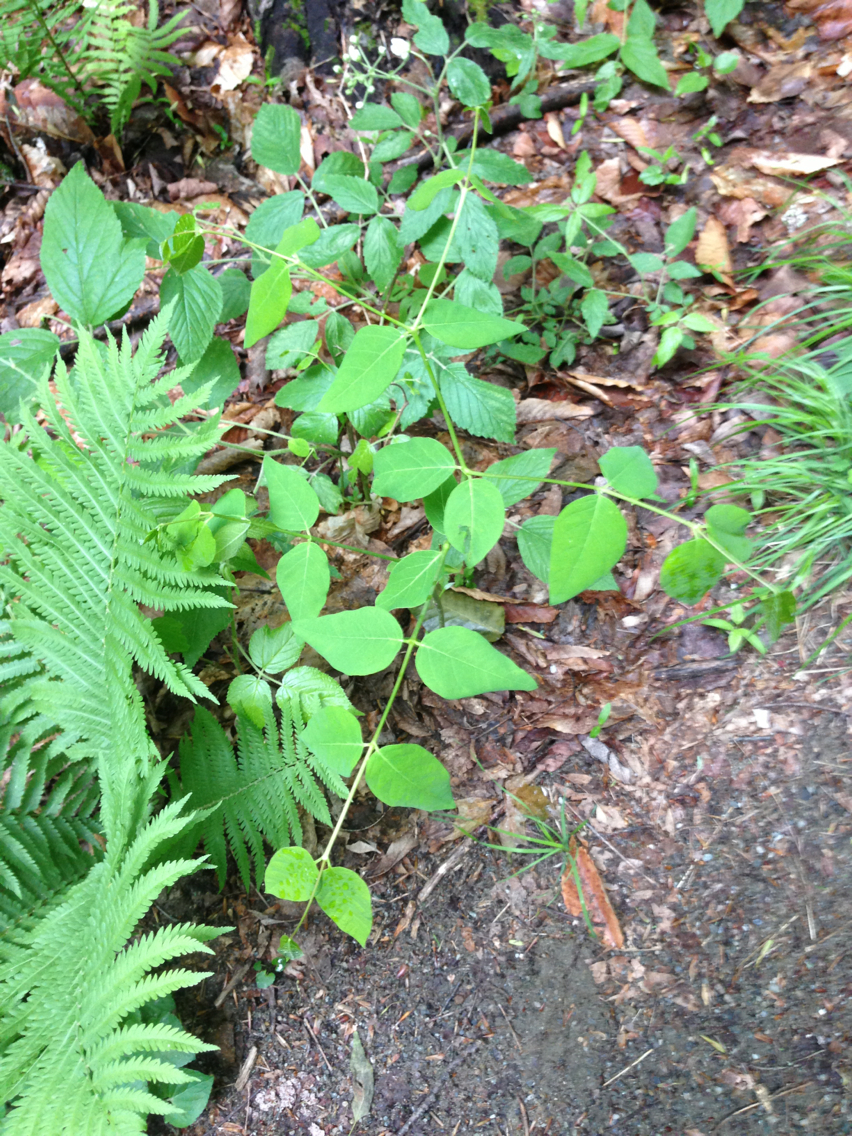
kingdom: Plantae
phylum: Tracheophyta
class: Magnoliopsida
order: Gentianales
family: Apocynaceae
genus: Apocynum
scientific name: Apocynum androsaemifolium
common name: Spreading dogbane
